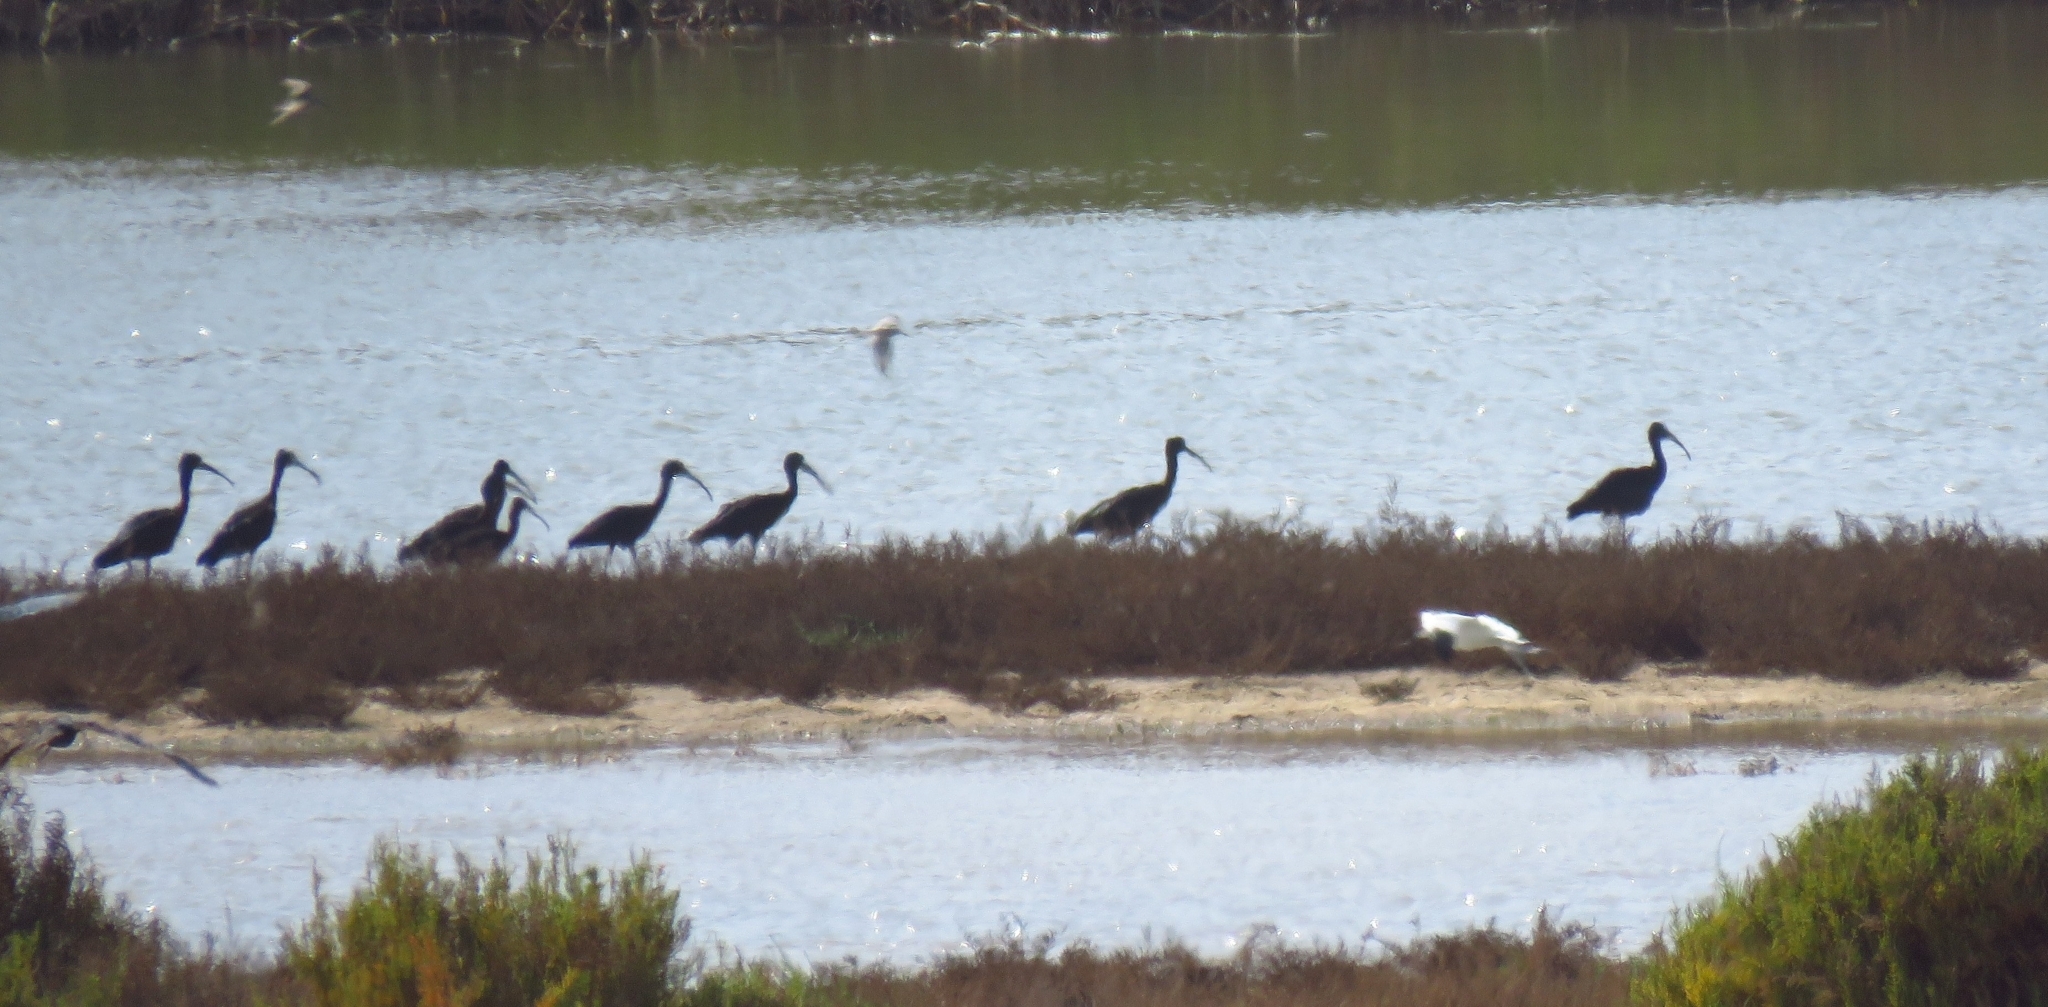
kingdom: Animalia
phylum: Chordata
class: Aves
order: Pelecaniformes
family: Threskiornithidae
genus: Plegadis
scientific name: Plegadis falcinellus
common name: Glossy ibis
